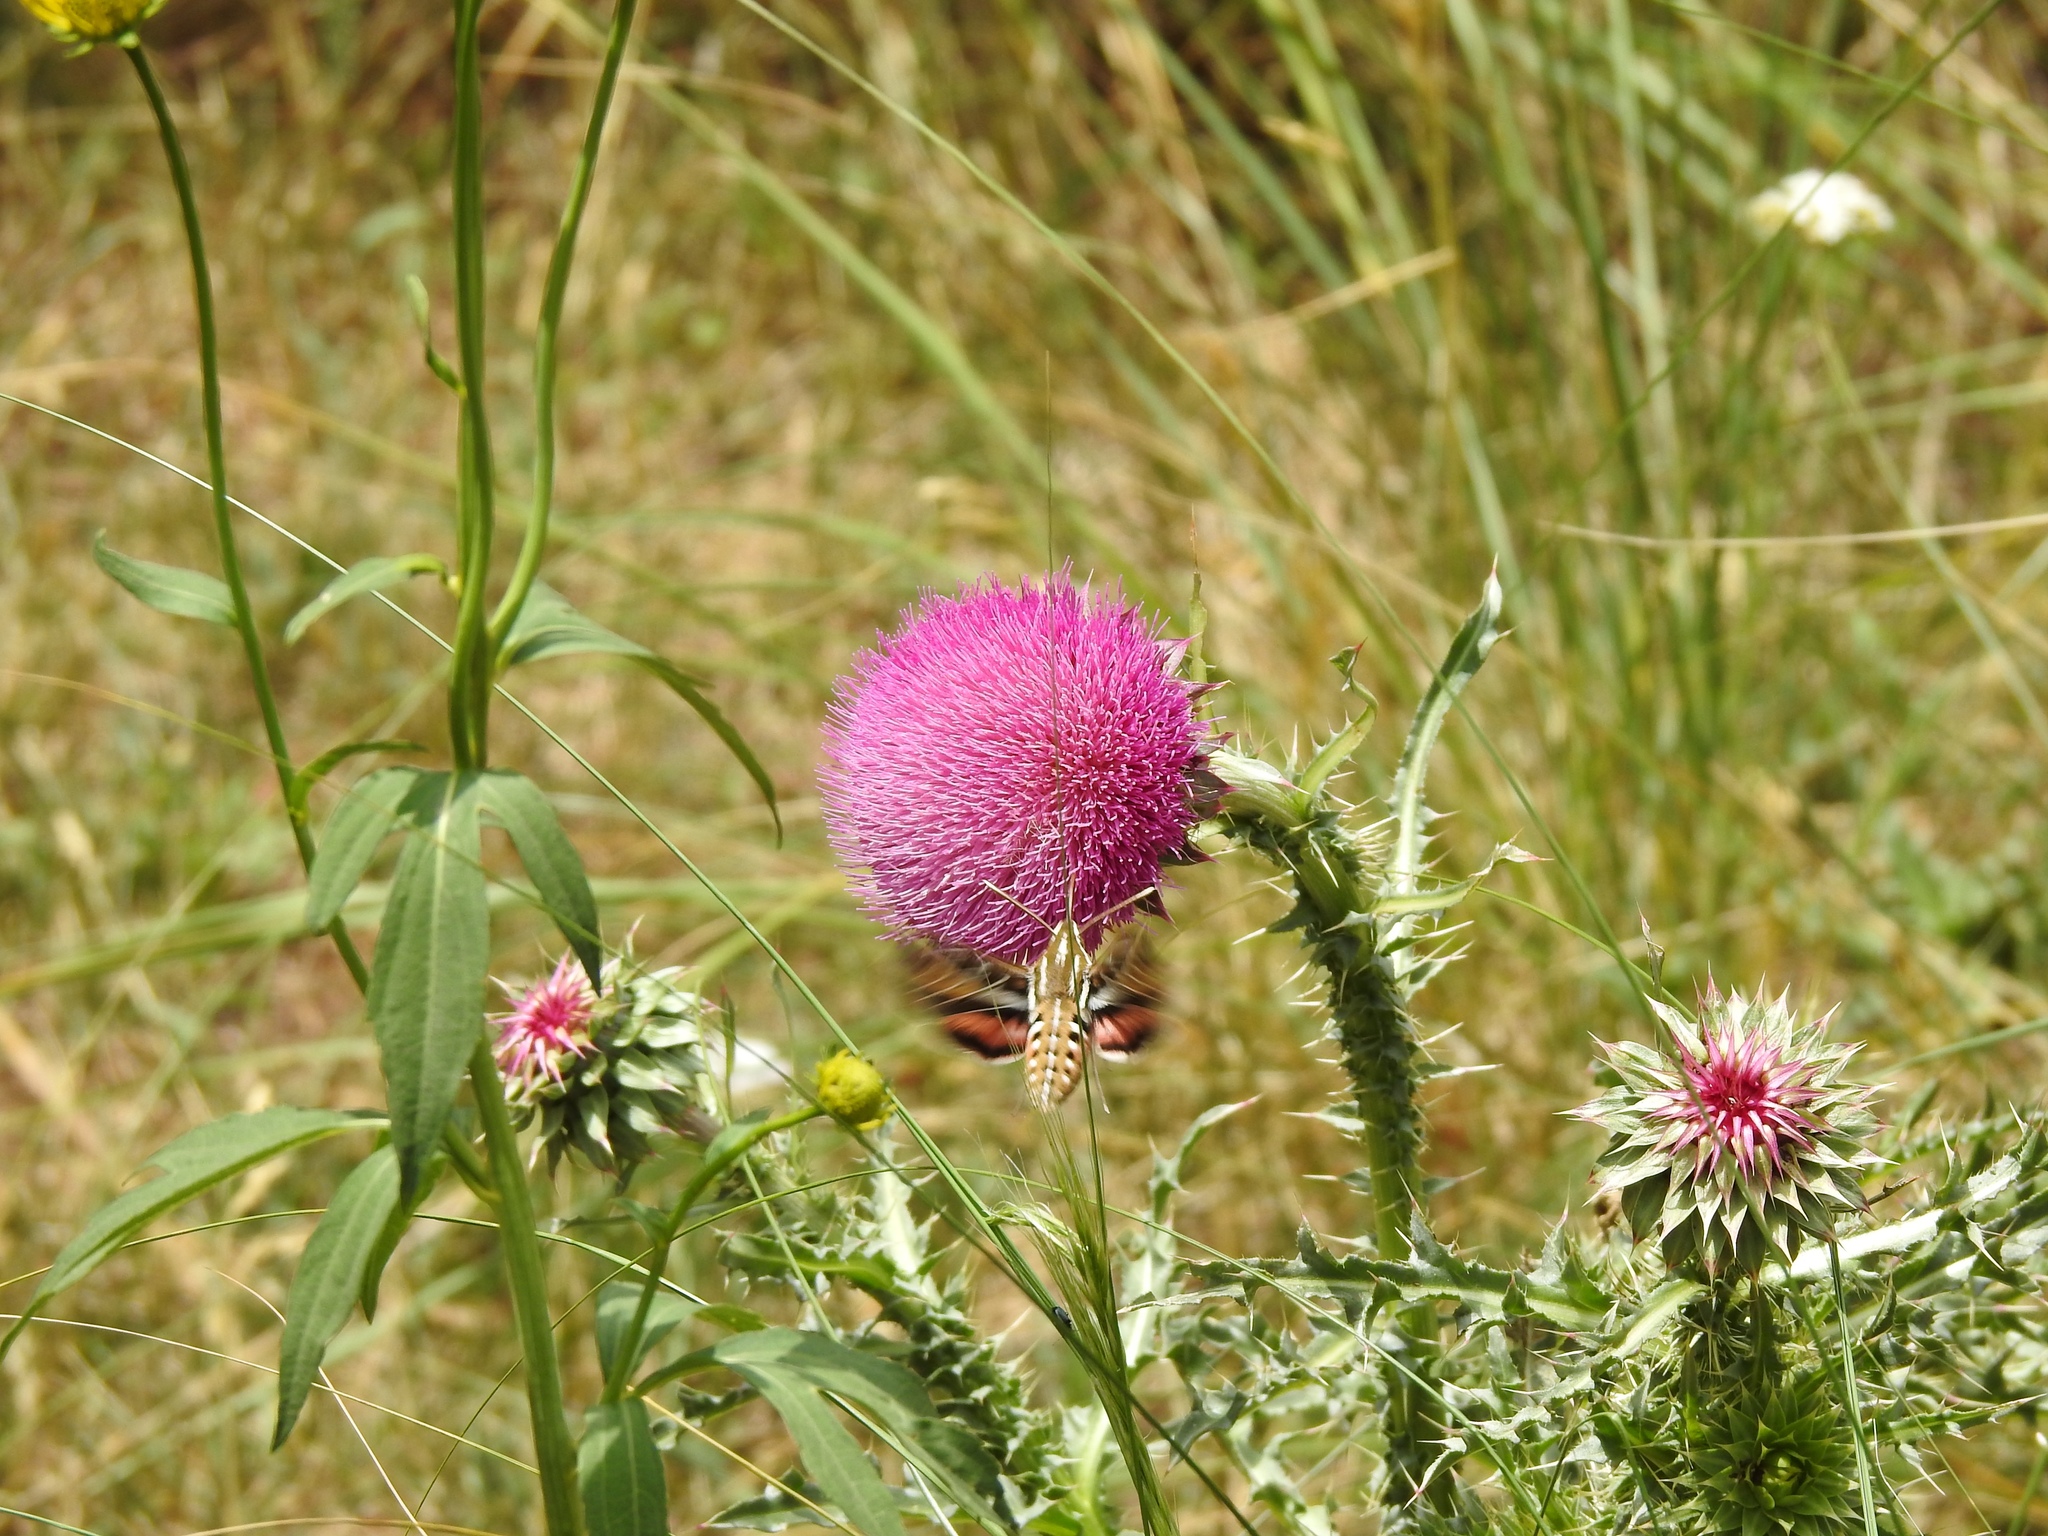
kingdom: Animalia
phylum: Arthropoda
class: Insecta
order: Lepidoptera
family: Sphingidae
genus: Hyles
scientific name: Hyles lineata
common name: White-lined sphinx
